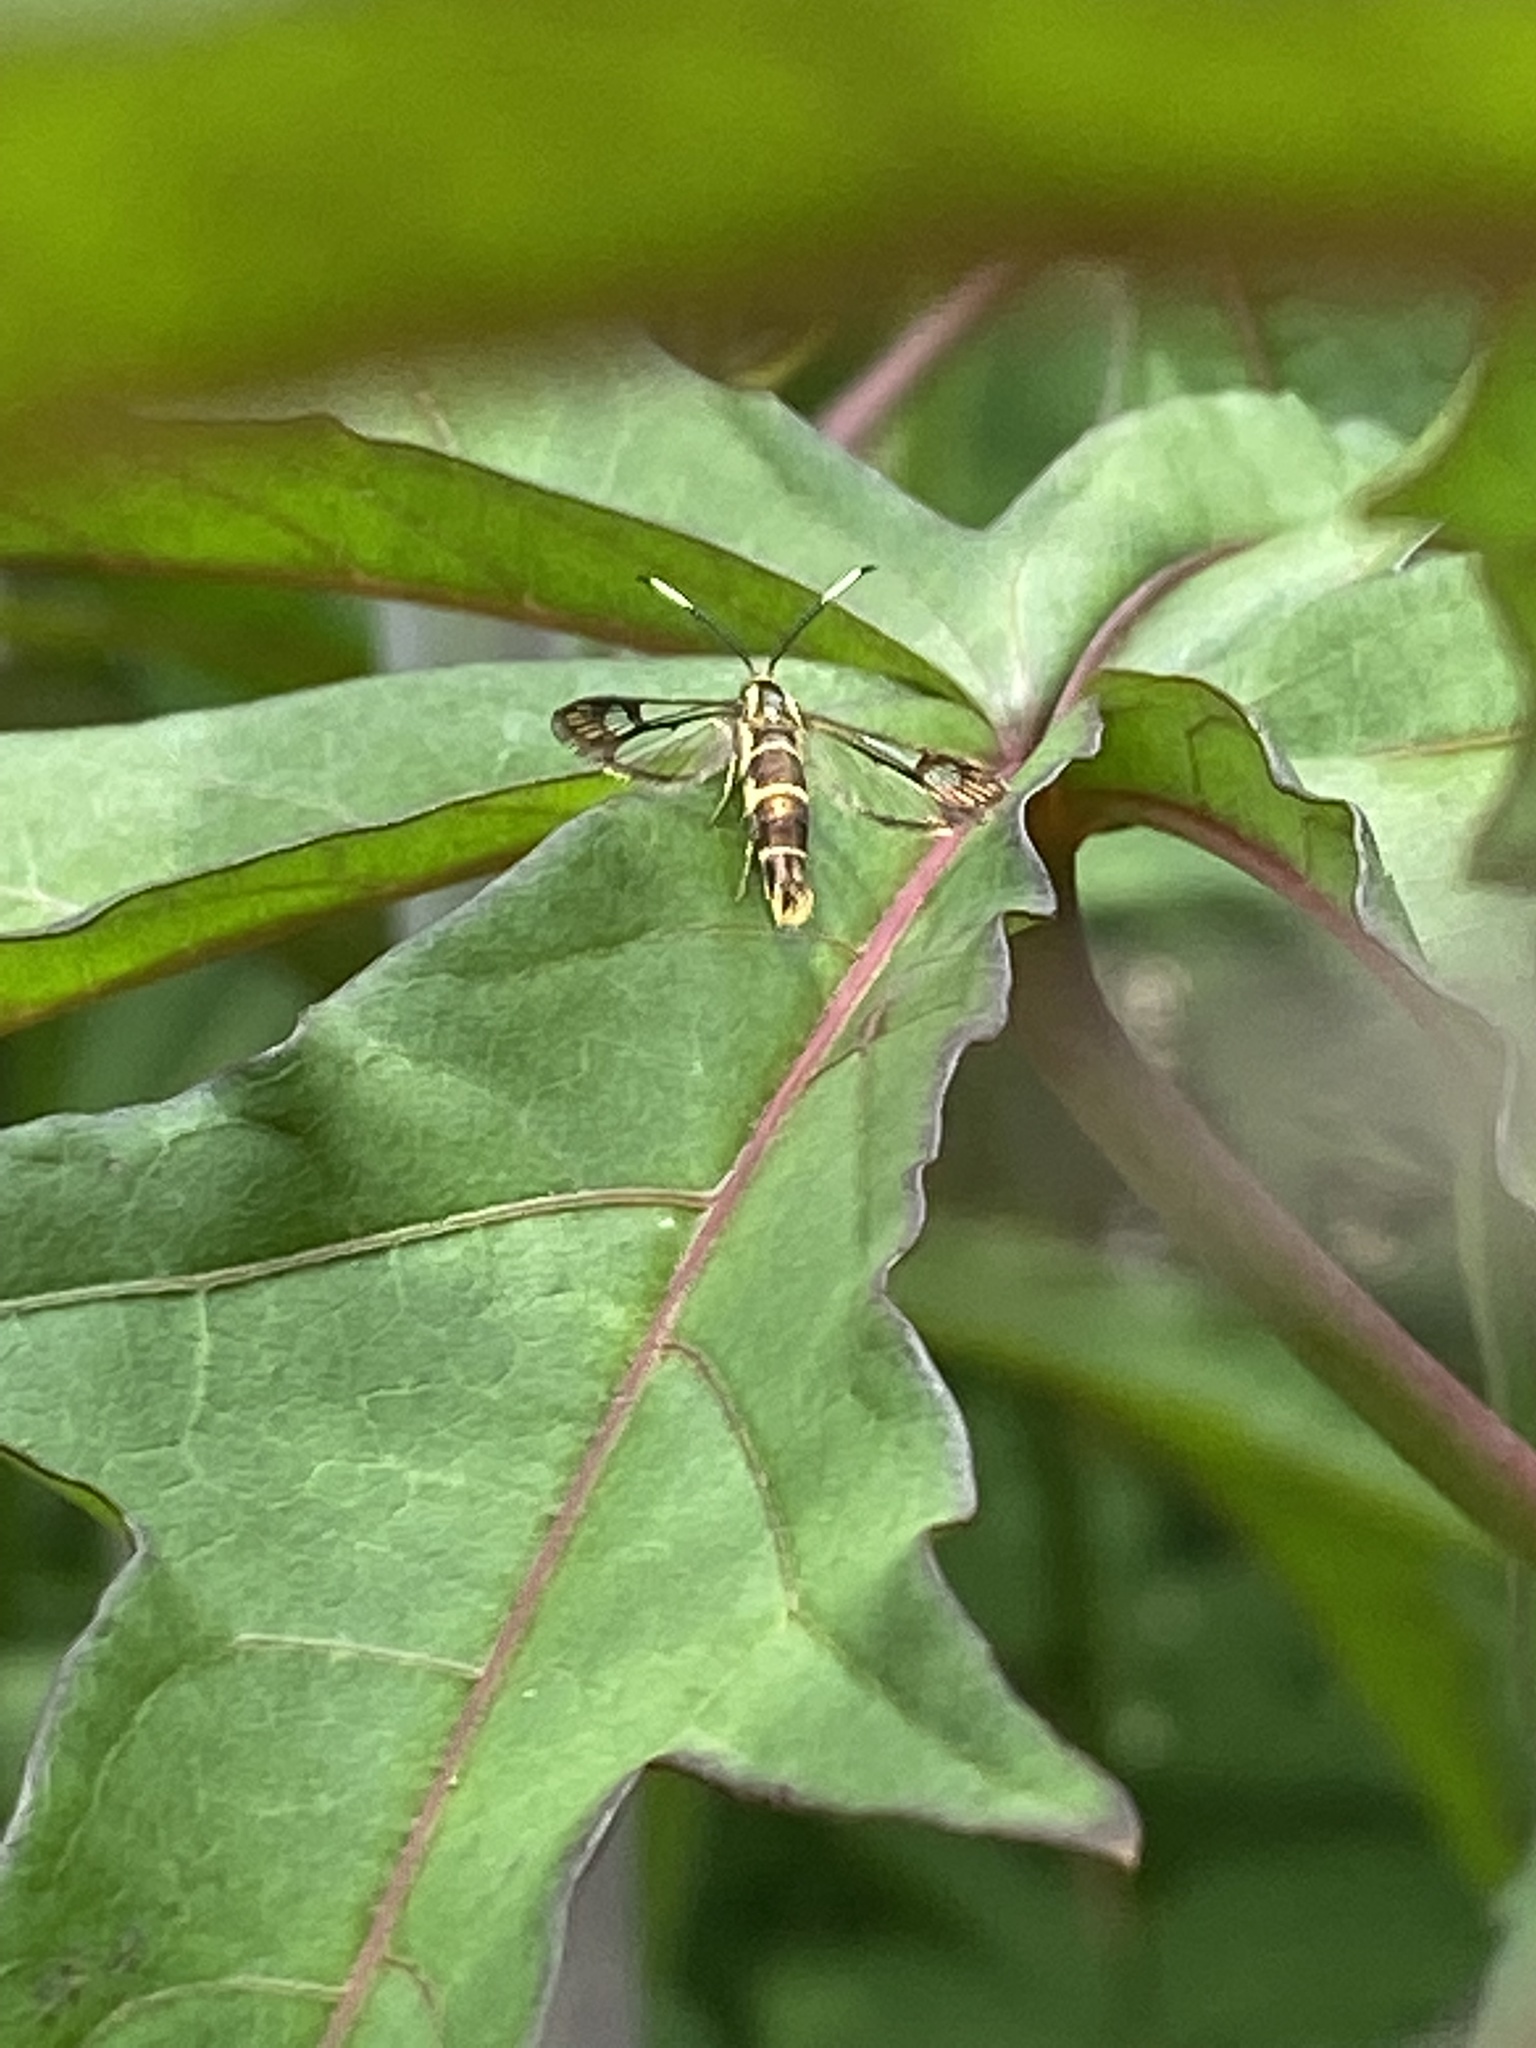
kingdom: Animalia
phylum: Arthropoda
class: Insecta
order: Lepidoptera
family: Sesiidae
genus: Carmenta
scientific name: Carmenta bassiformis
